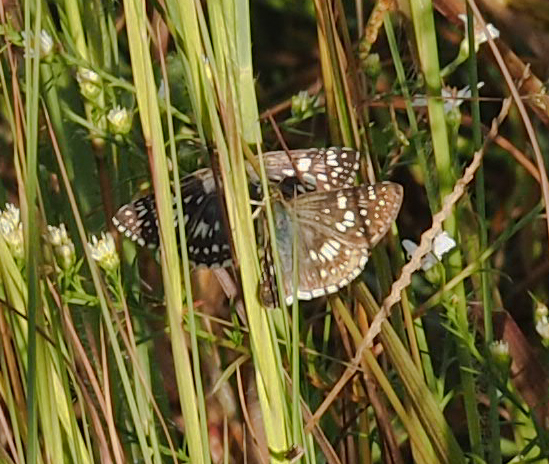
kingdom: Animalia
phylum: Arthropoda
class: Insecta
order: Lepidoptera
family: Hesperiidae
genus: Burnsius
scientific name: Burnsius communis
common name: Common checkered-skipper
